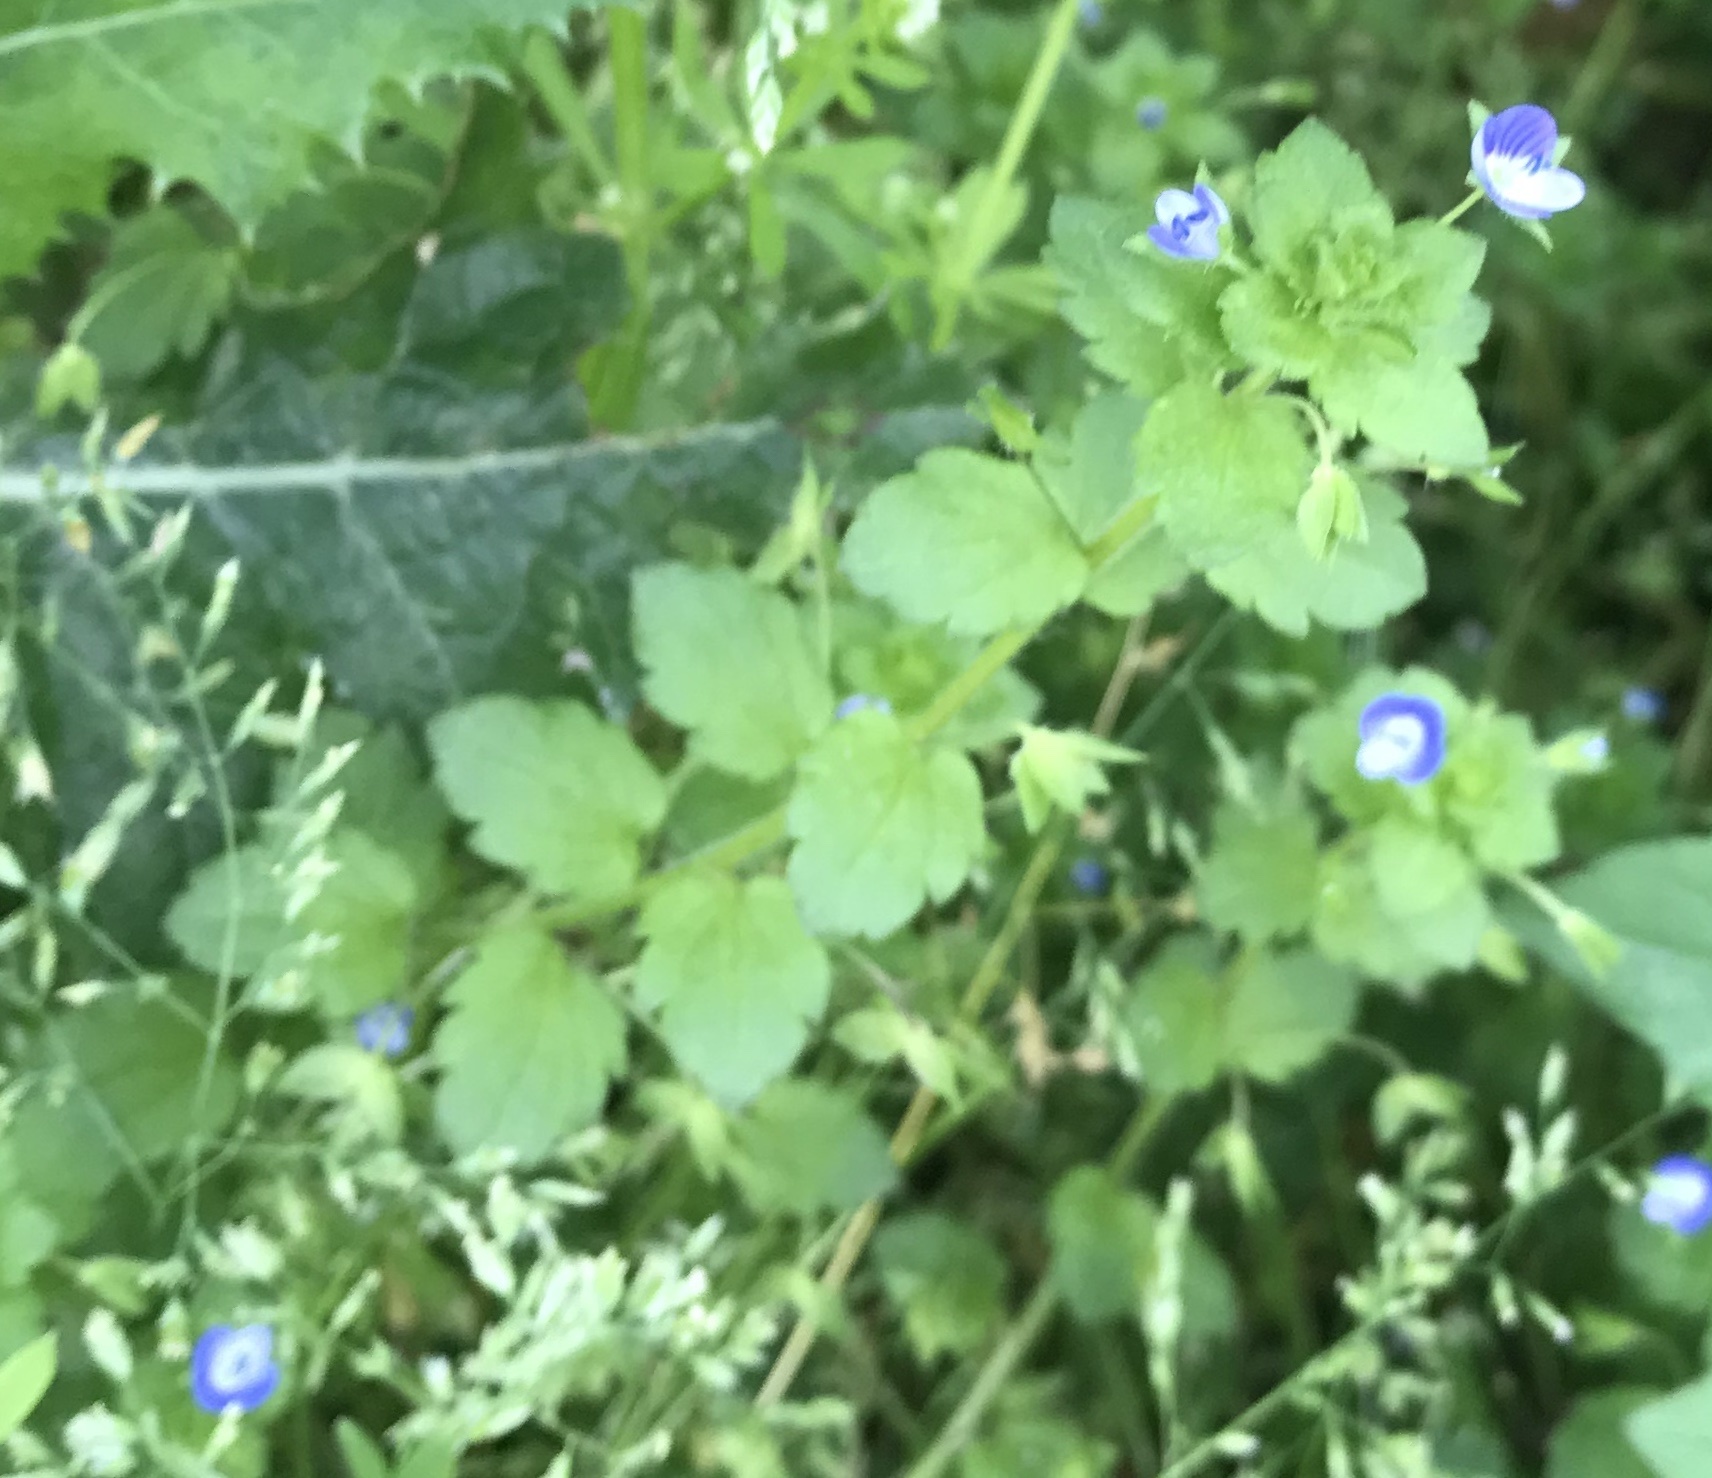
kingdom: Plantae
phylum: Tracheophyta
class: Magnoliopsida
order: Lamiales
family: Plantaginaceae
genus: Veronica
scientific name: Veronica persica
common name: Common field-speedwell
